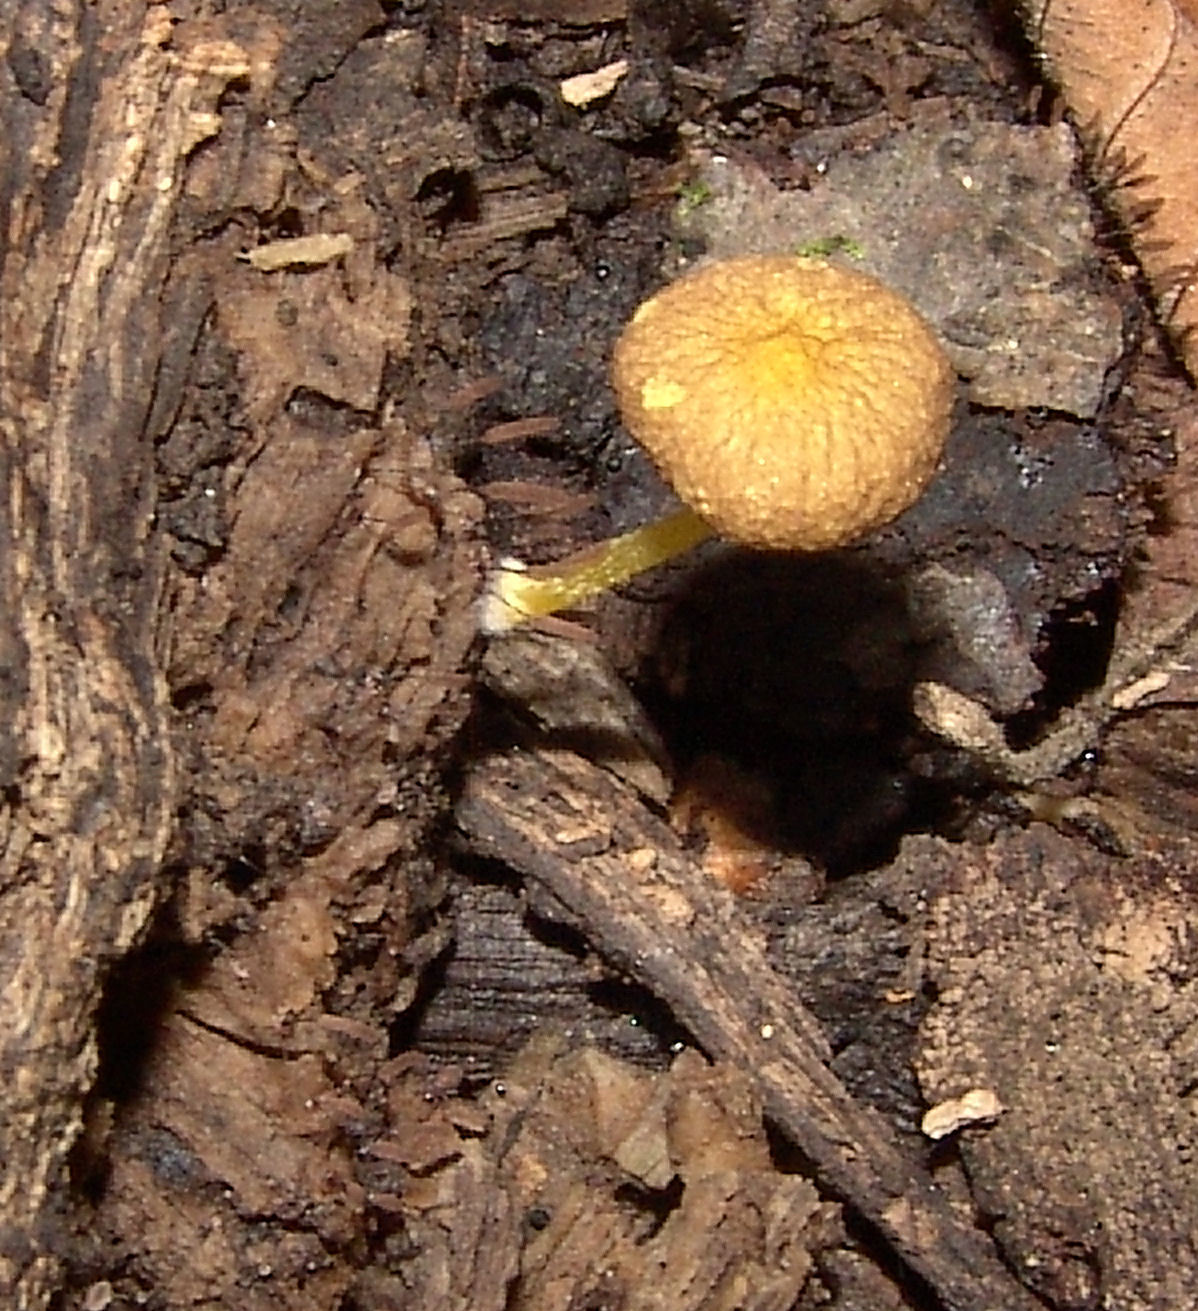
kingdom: Fungi
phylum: Basidiomycota
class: Agaricomycetes
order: Agaricales
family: Pluteaceae
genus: Pluteus
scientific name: Pluteus chrysophlebius
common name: Yellow deer mushroom
